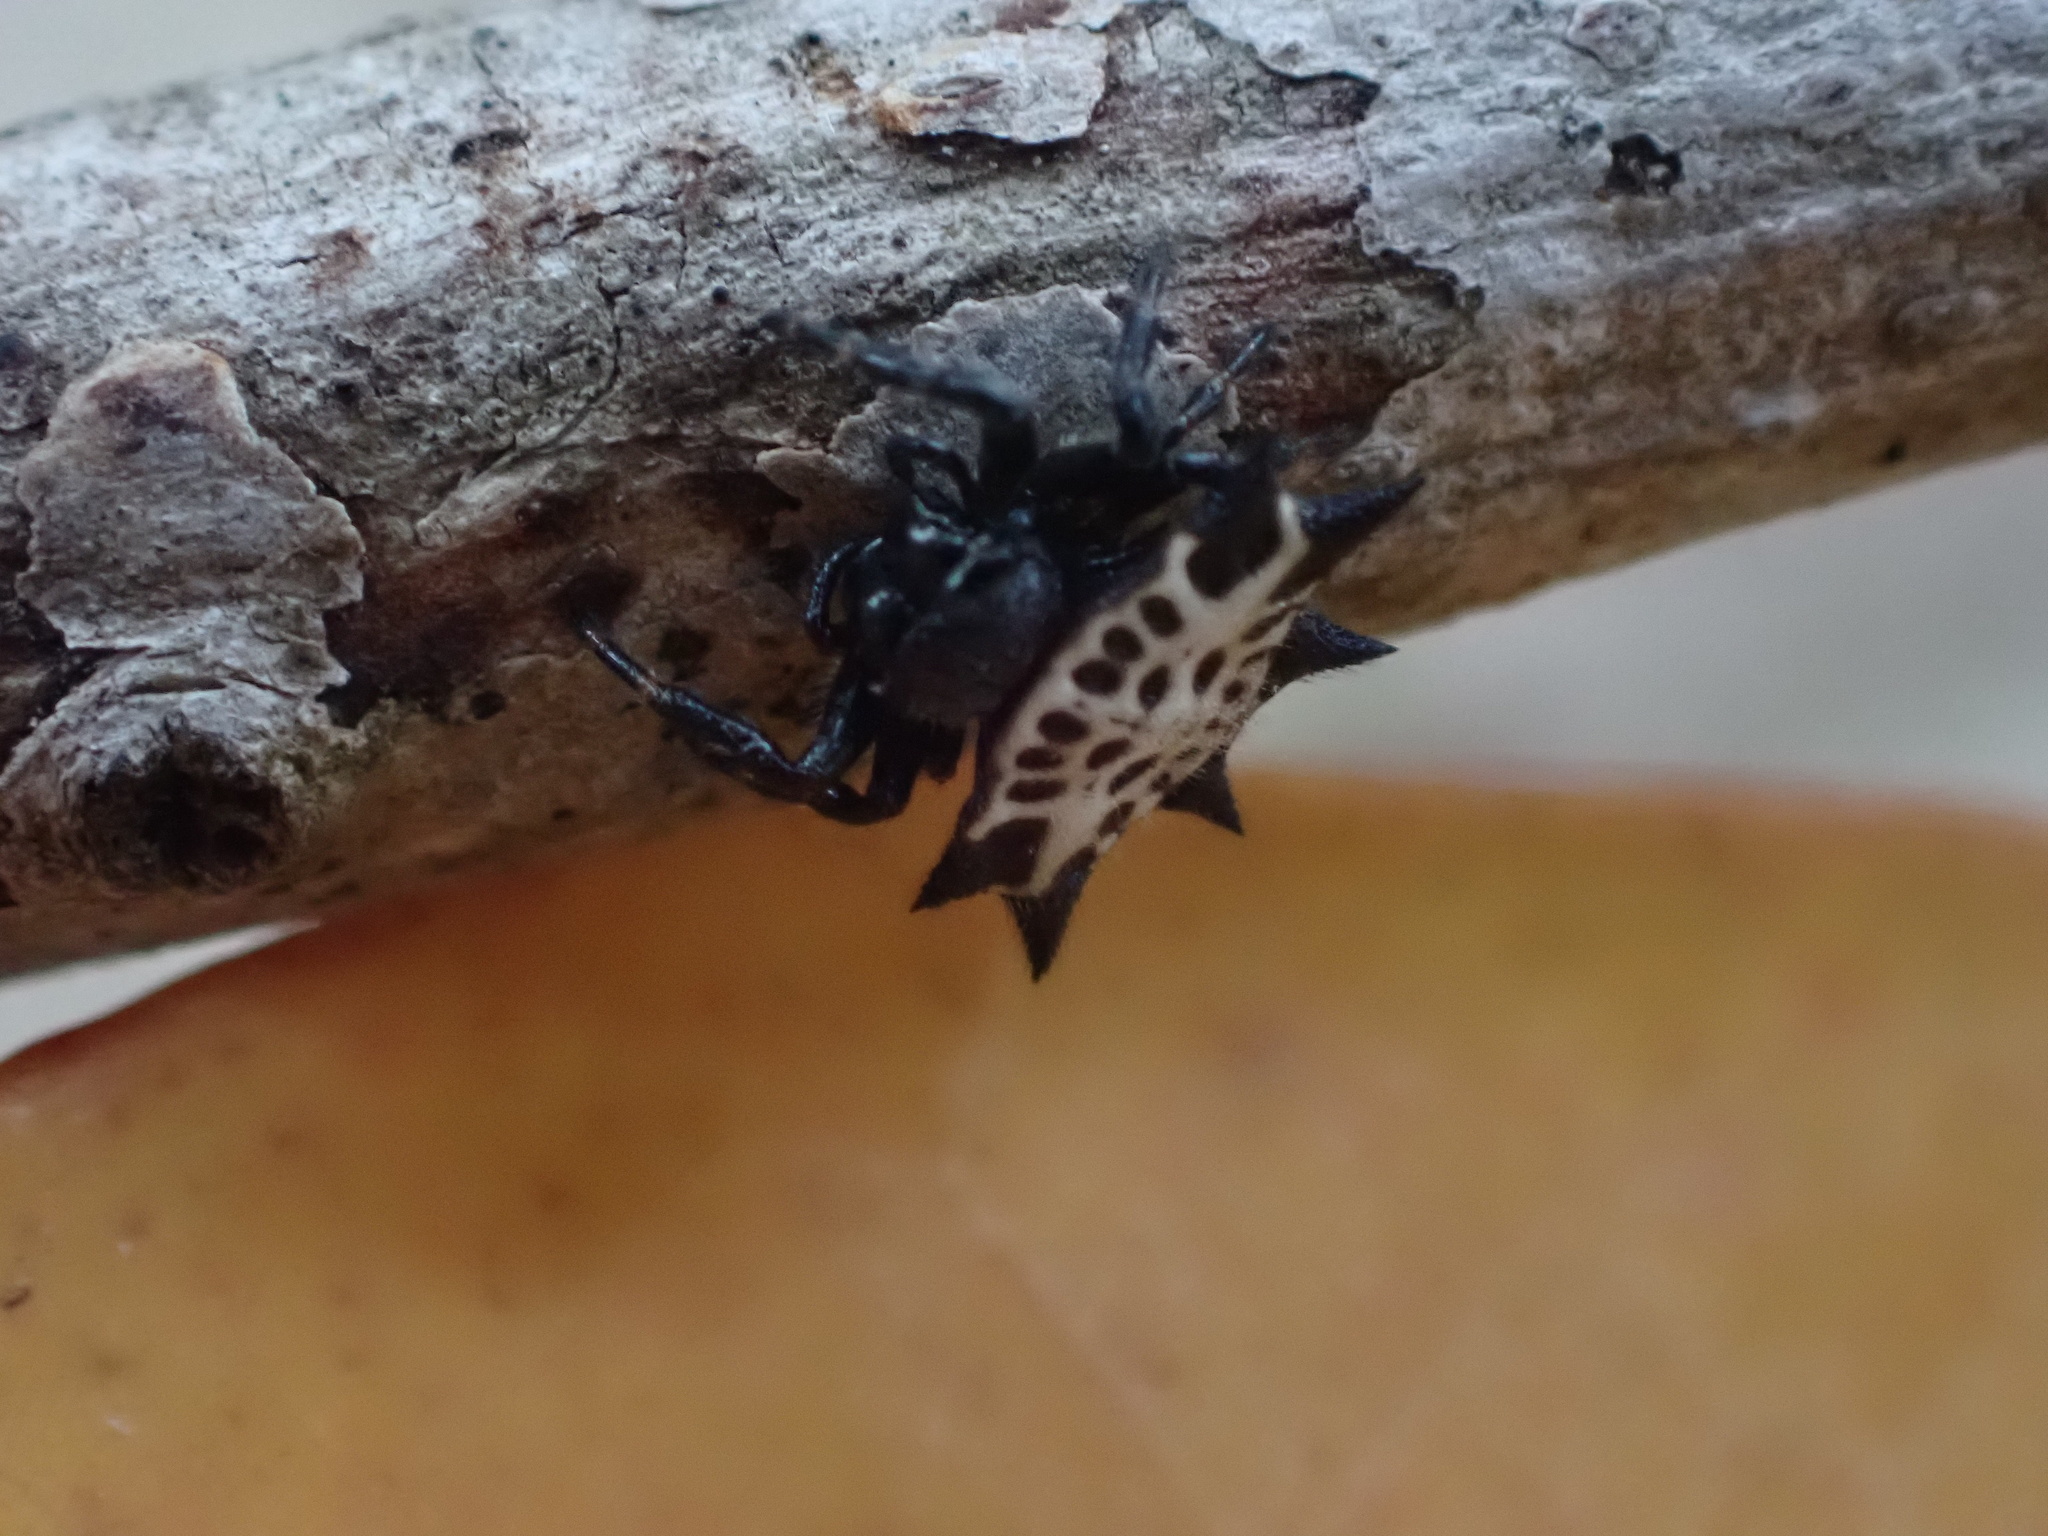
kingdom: Animalia
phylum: Arthropoda
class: Arachnida
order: Araneae
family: Araneidae
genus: Gasteracantha
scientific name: Gasteracantha cancriformis
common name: Orb weavers
